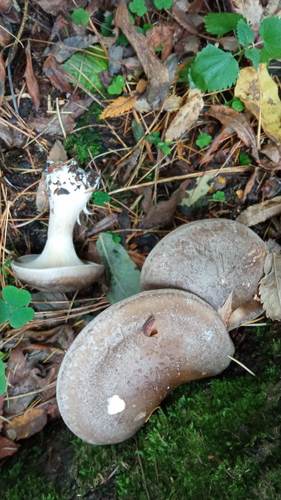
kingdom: Fungi
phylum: Basidiomycota
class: Agaricomycetes
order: Agaricales
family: Tricholomataceae
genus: Clitocybe
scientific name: Clitocybe nebularis
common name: Clouded agaric
